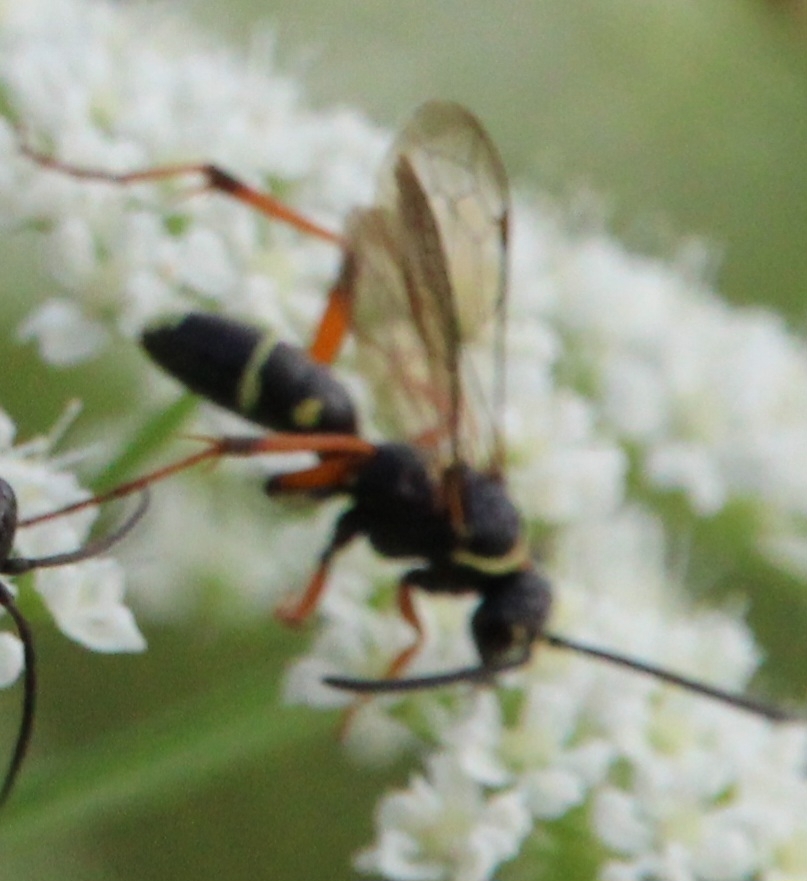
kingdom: Animalia
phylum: Arthropoda
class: Insecta
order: Hymenoptera
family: Pompilidae
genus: Ceropales
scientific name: Ceropales maculata
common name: Spider wasp
